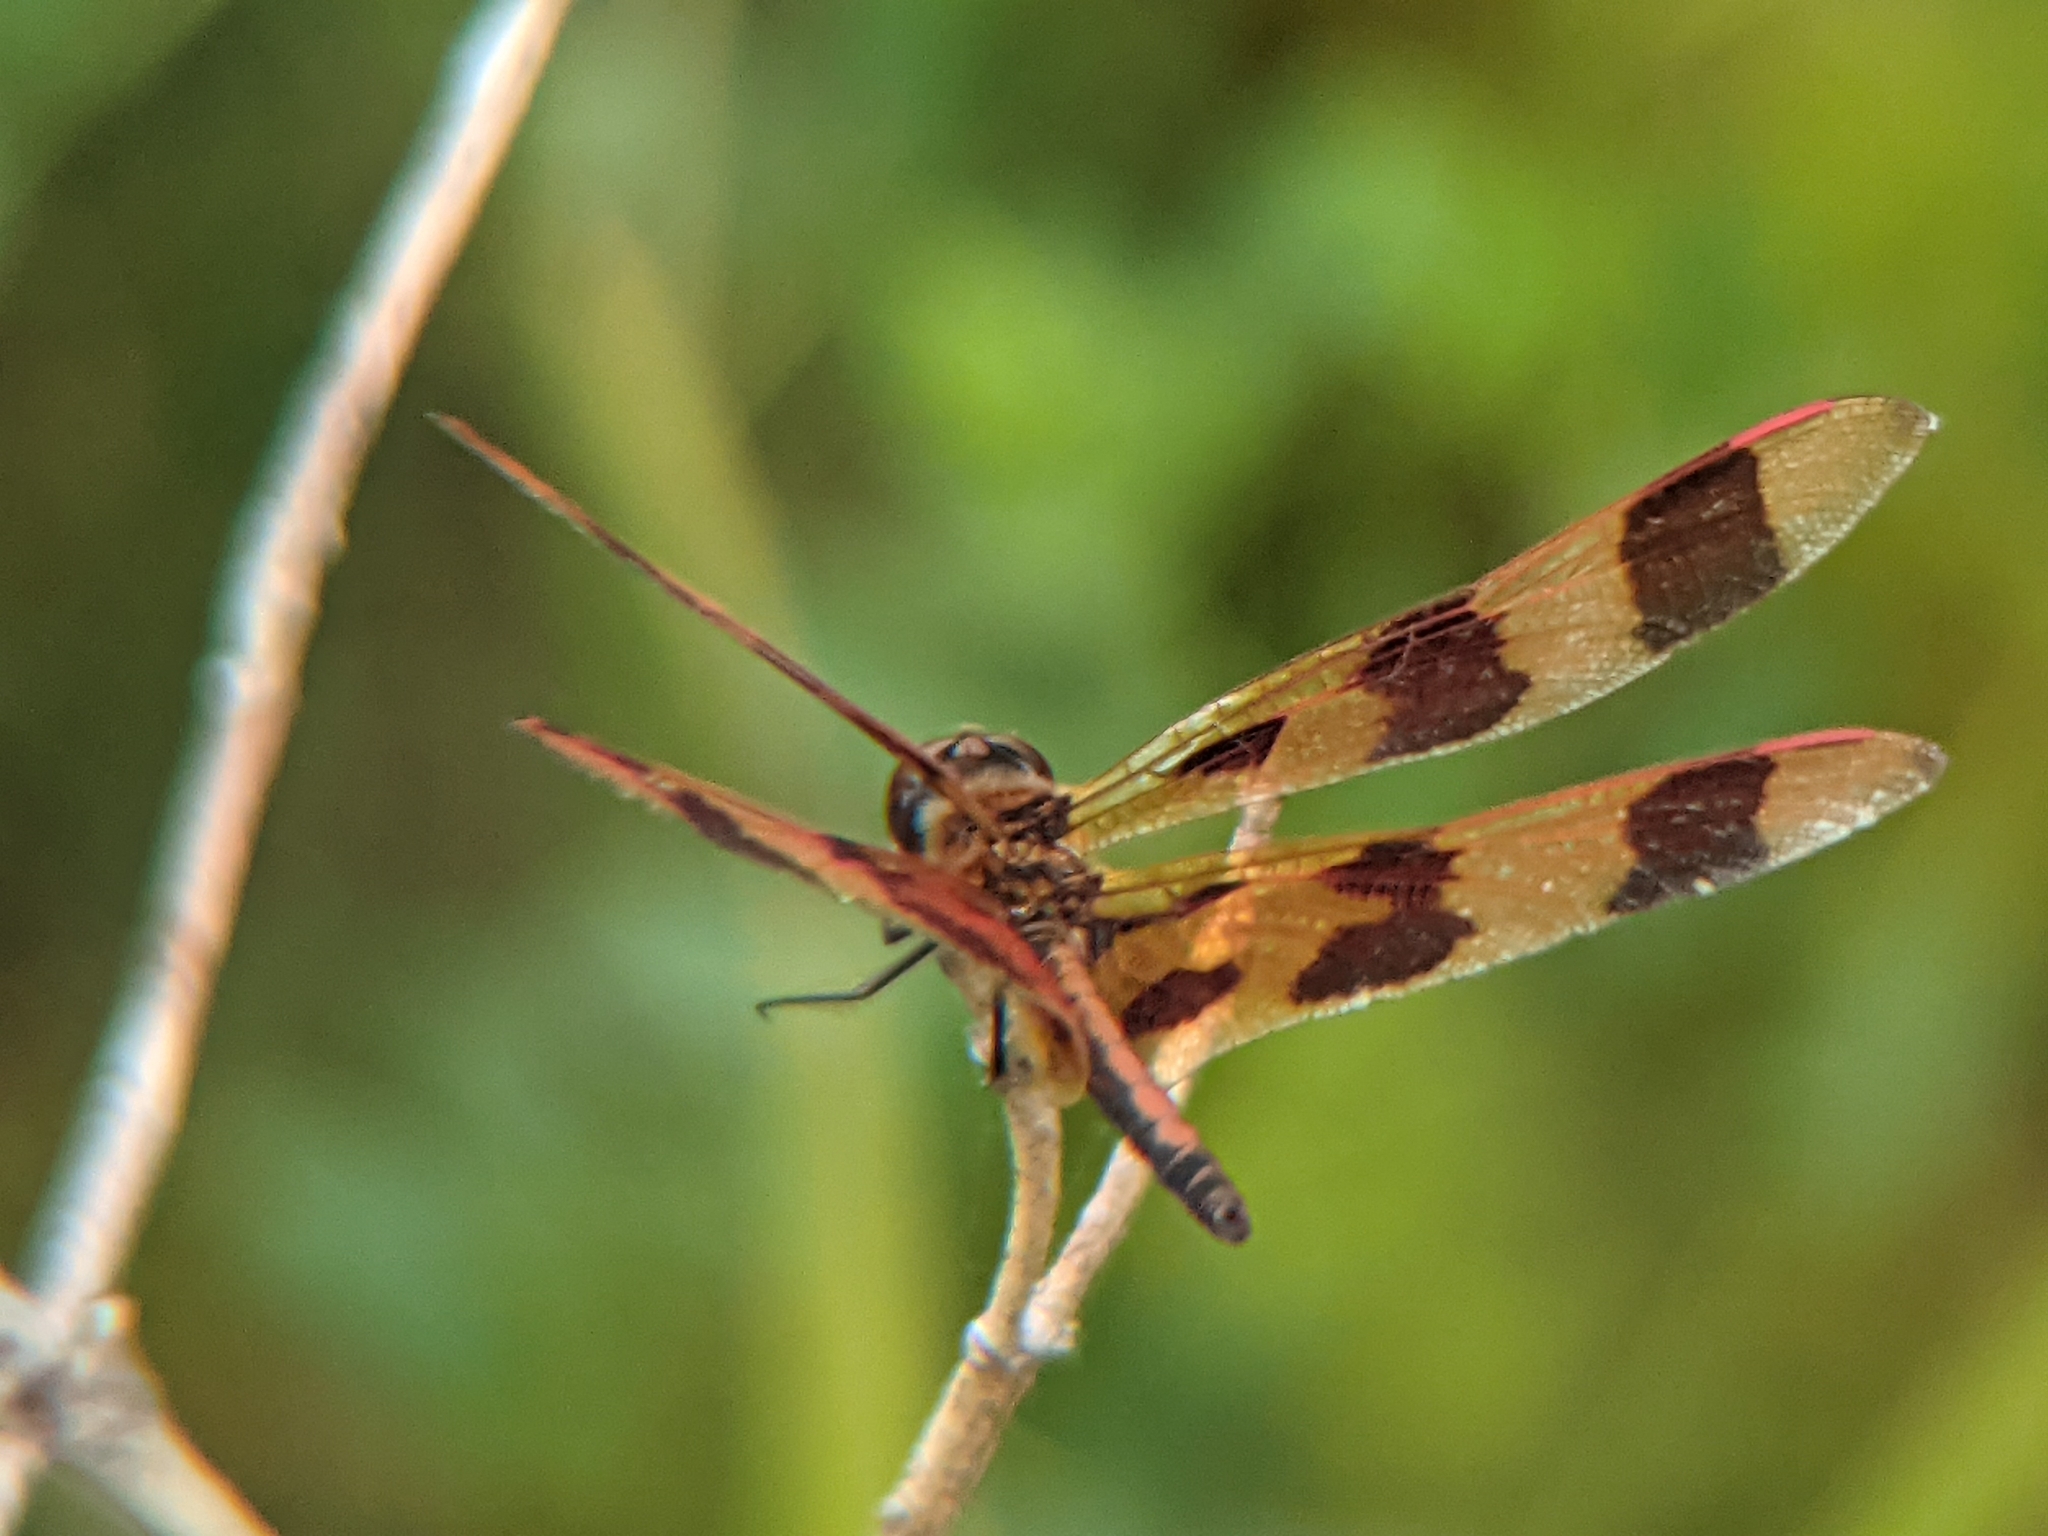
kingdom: Animalia
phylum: Arthropoda
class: Insecta
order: Odonata
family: Libellulidae
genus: Celithemis
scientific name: Celithemis eponina
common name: Halloween pennant
